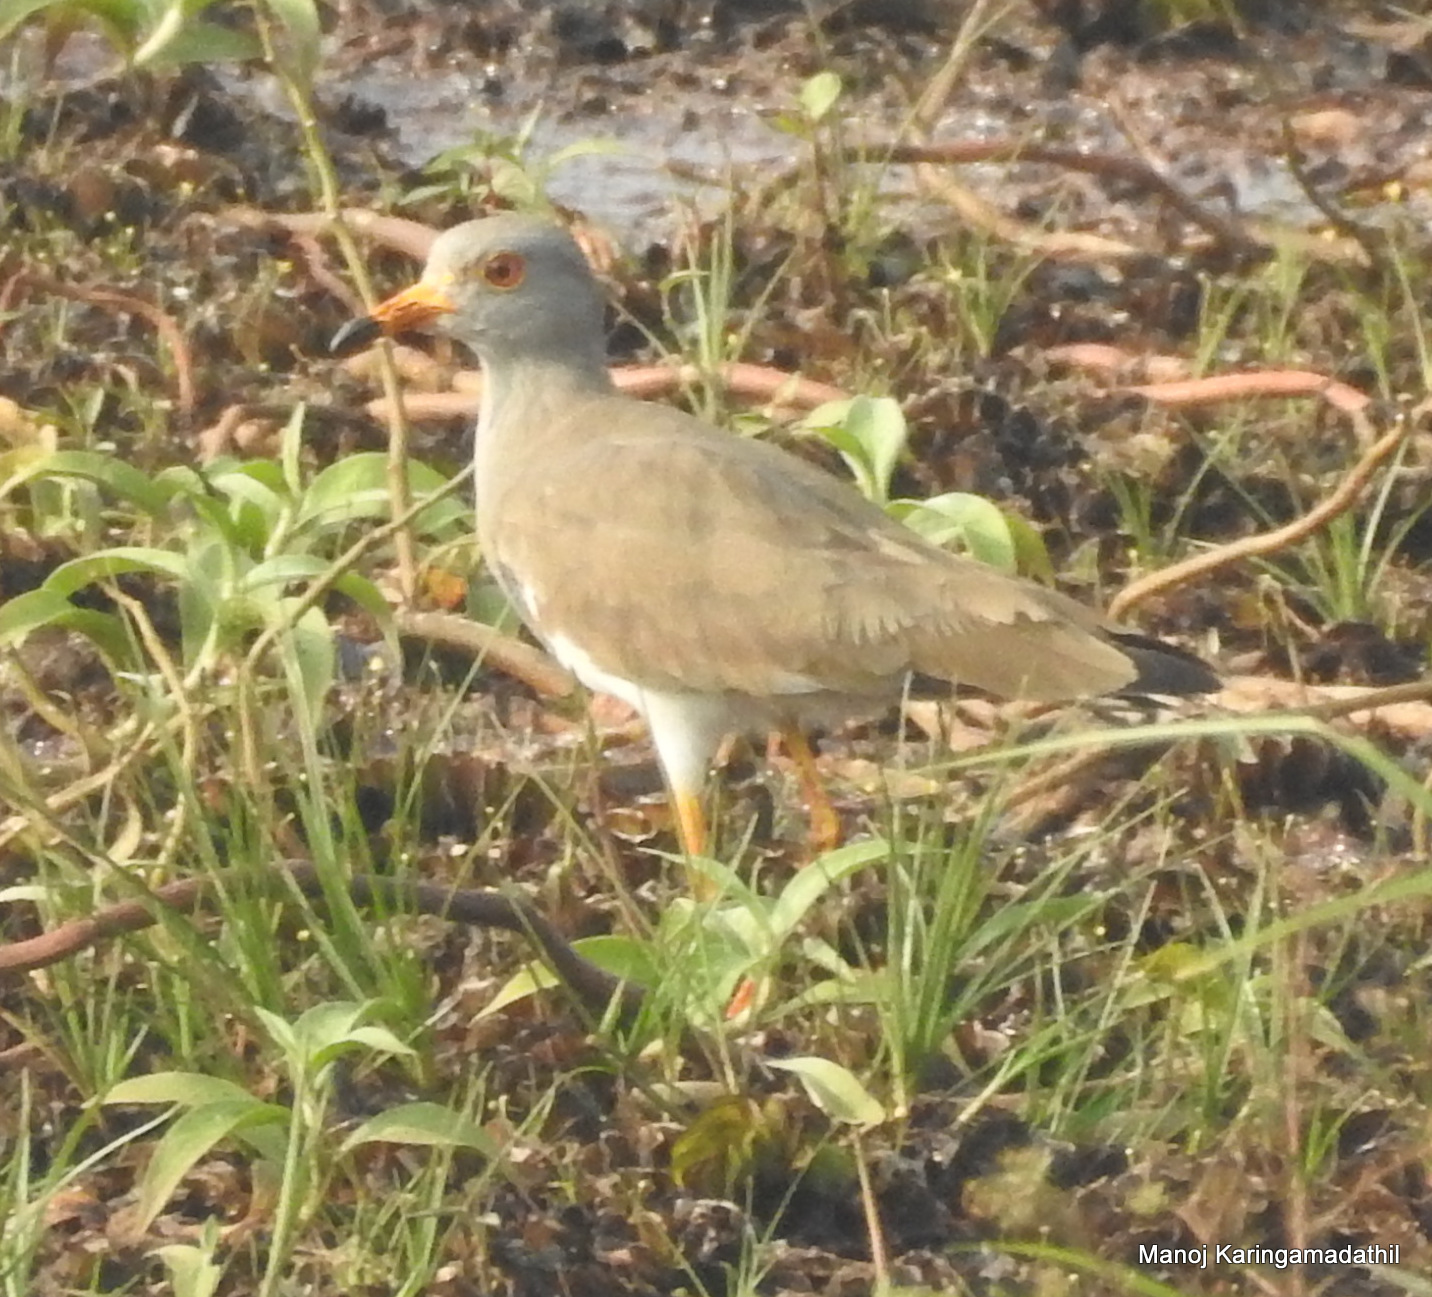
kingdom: Animalia
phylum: Chordata
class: Aves
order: Charadriiformes
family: Charadriidae
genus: Vanellus
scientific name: Vanellus cinereus
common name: Grey-headed lapwing
